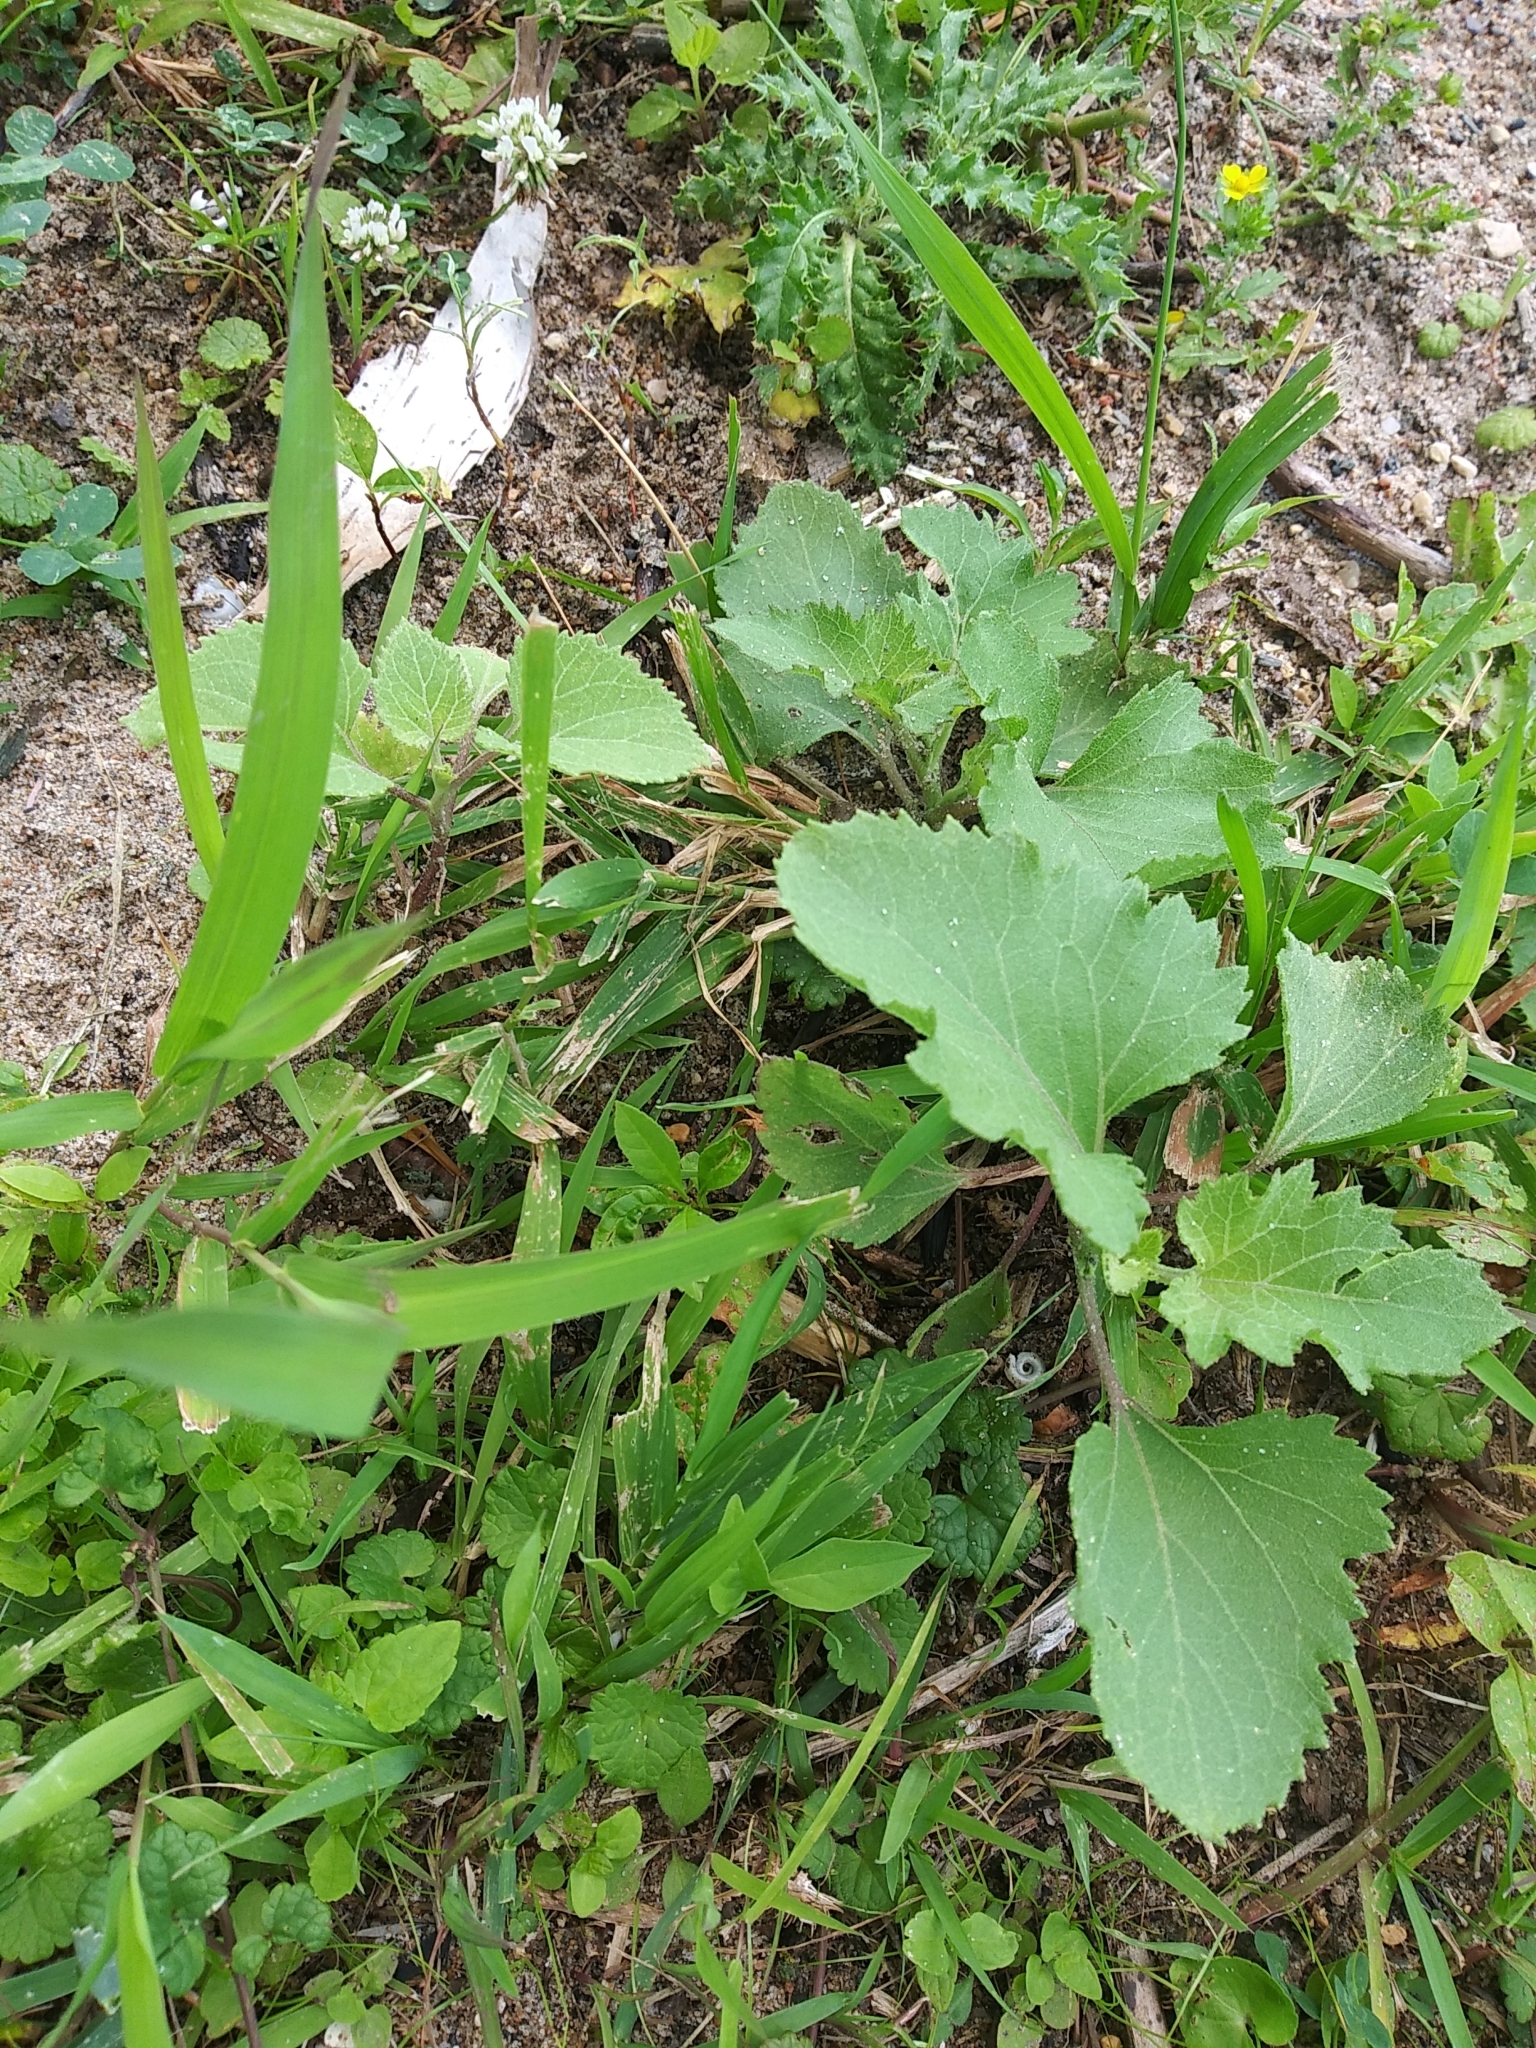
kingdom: Plantae
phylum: Tracheophyta
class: Magnoliopsida
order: Asterales
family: Asteraceae
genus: Xanthium
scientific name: Xanthium strumarium
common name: Rough cocklebur
